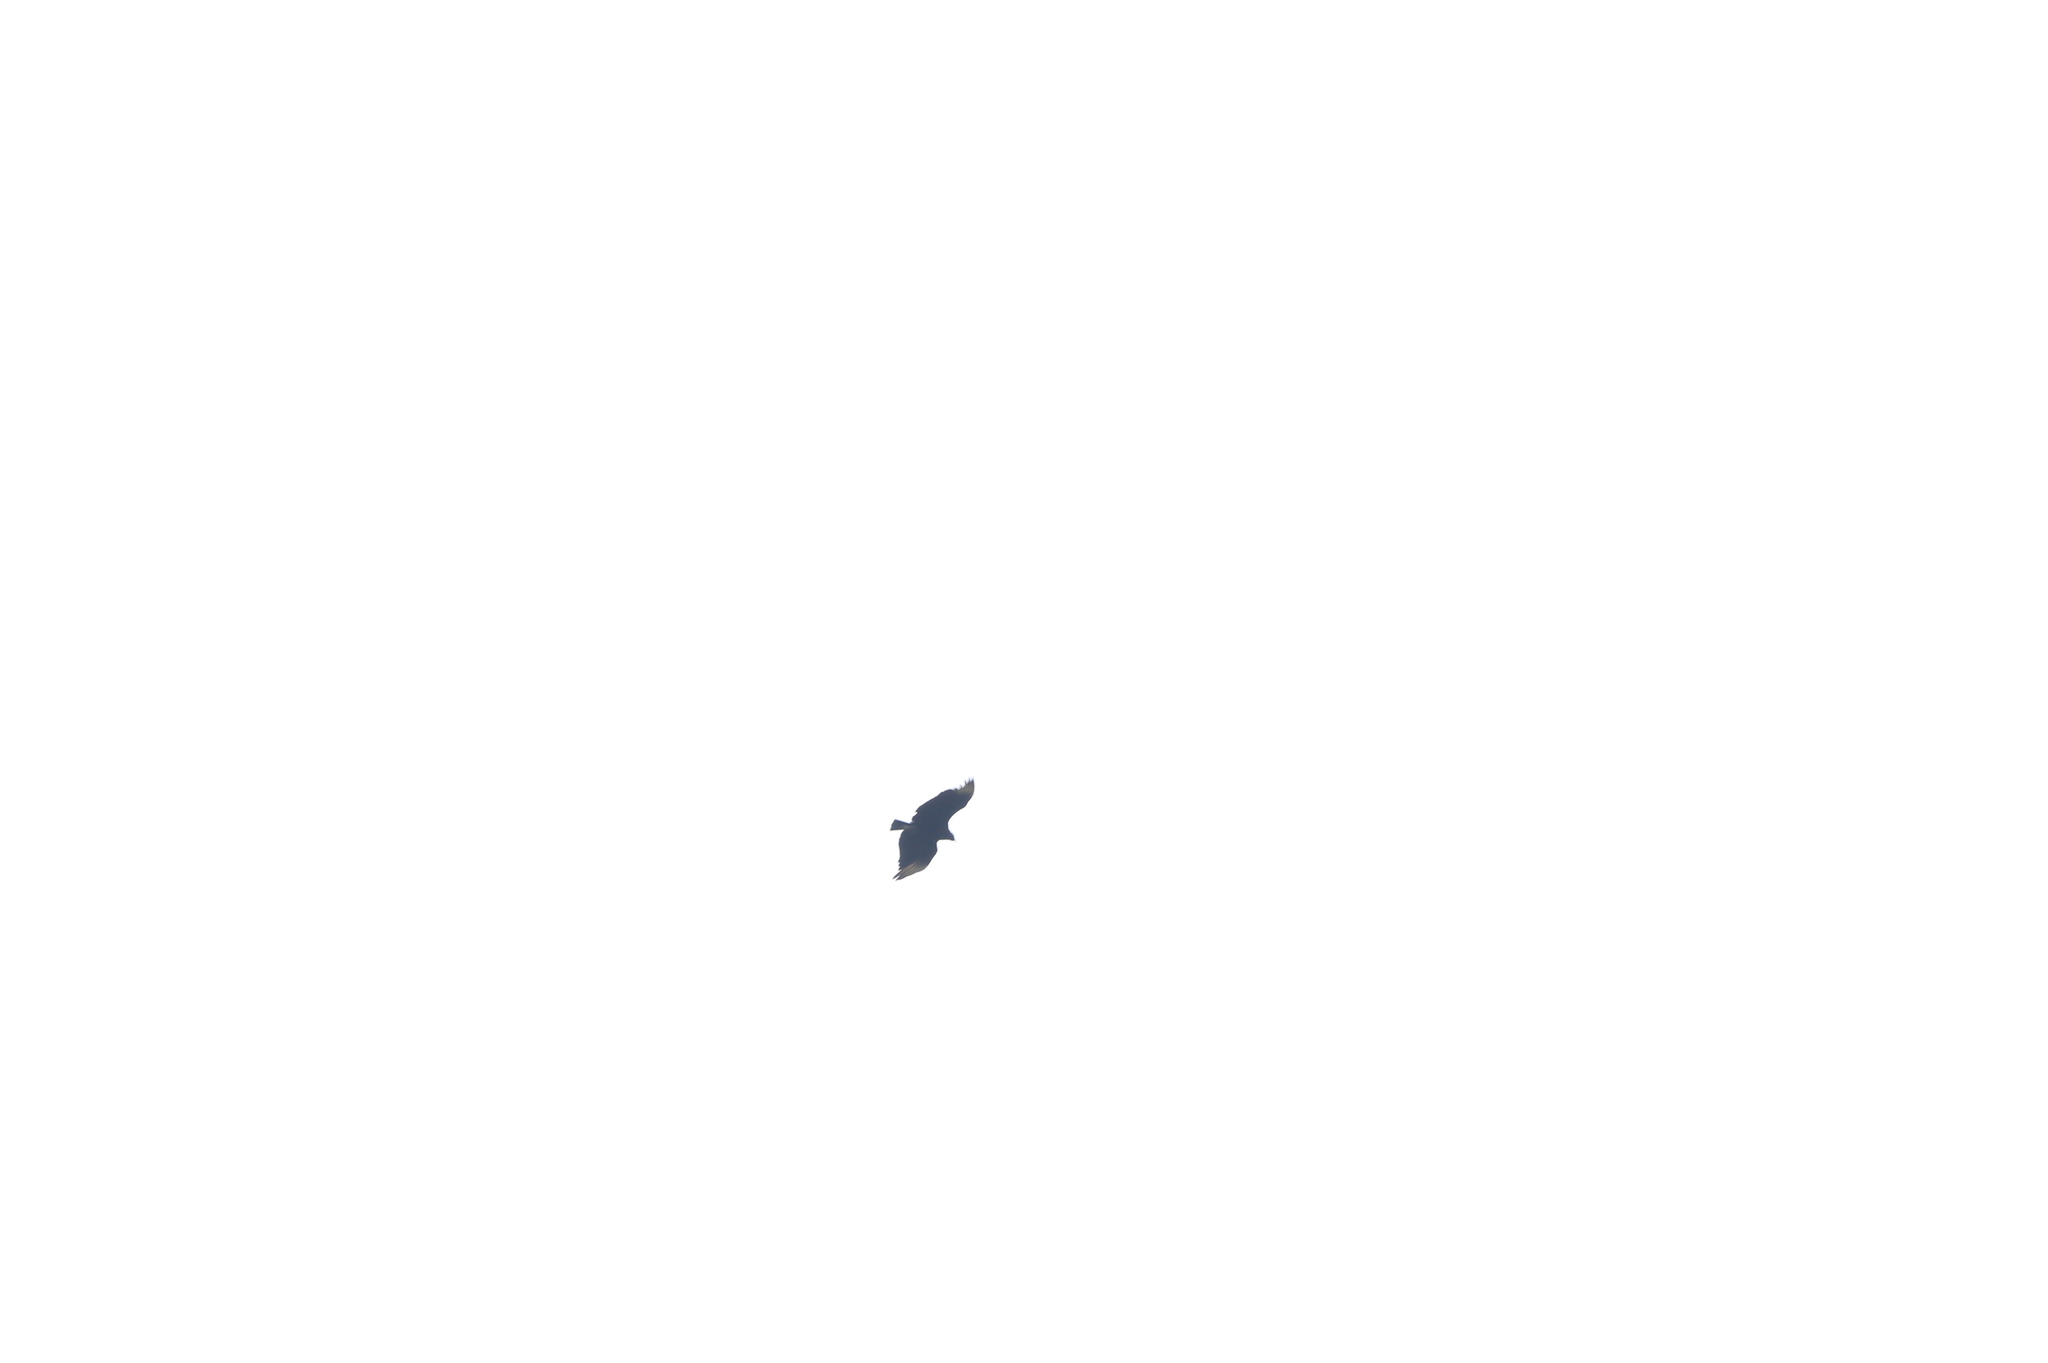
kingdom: Animalia
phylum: Chordata
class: Aves
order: Accipitriformes
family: Cathartidae
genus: Coragyps
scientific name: Coragyps atratus
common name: Black vulture
